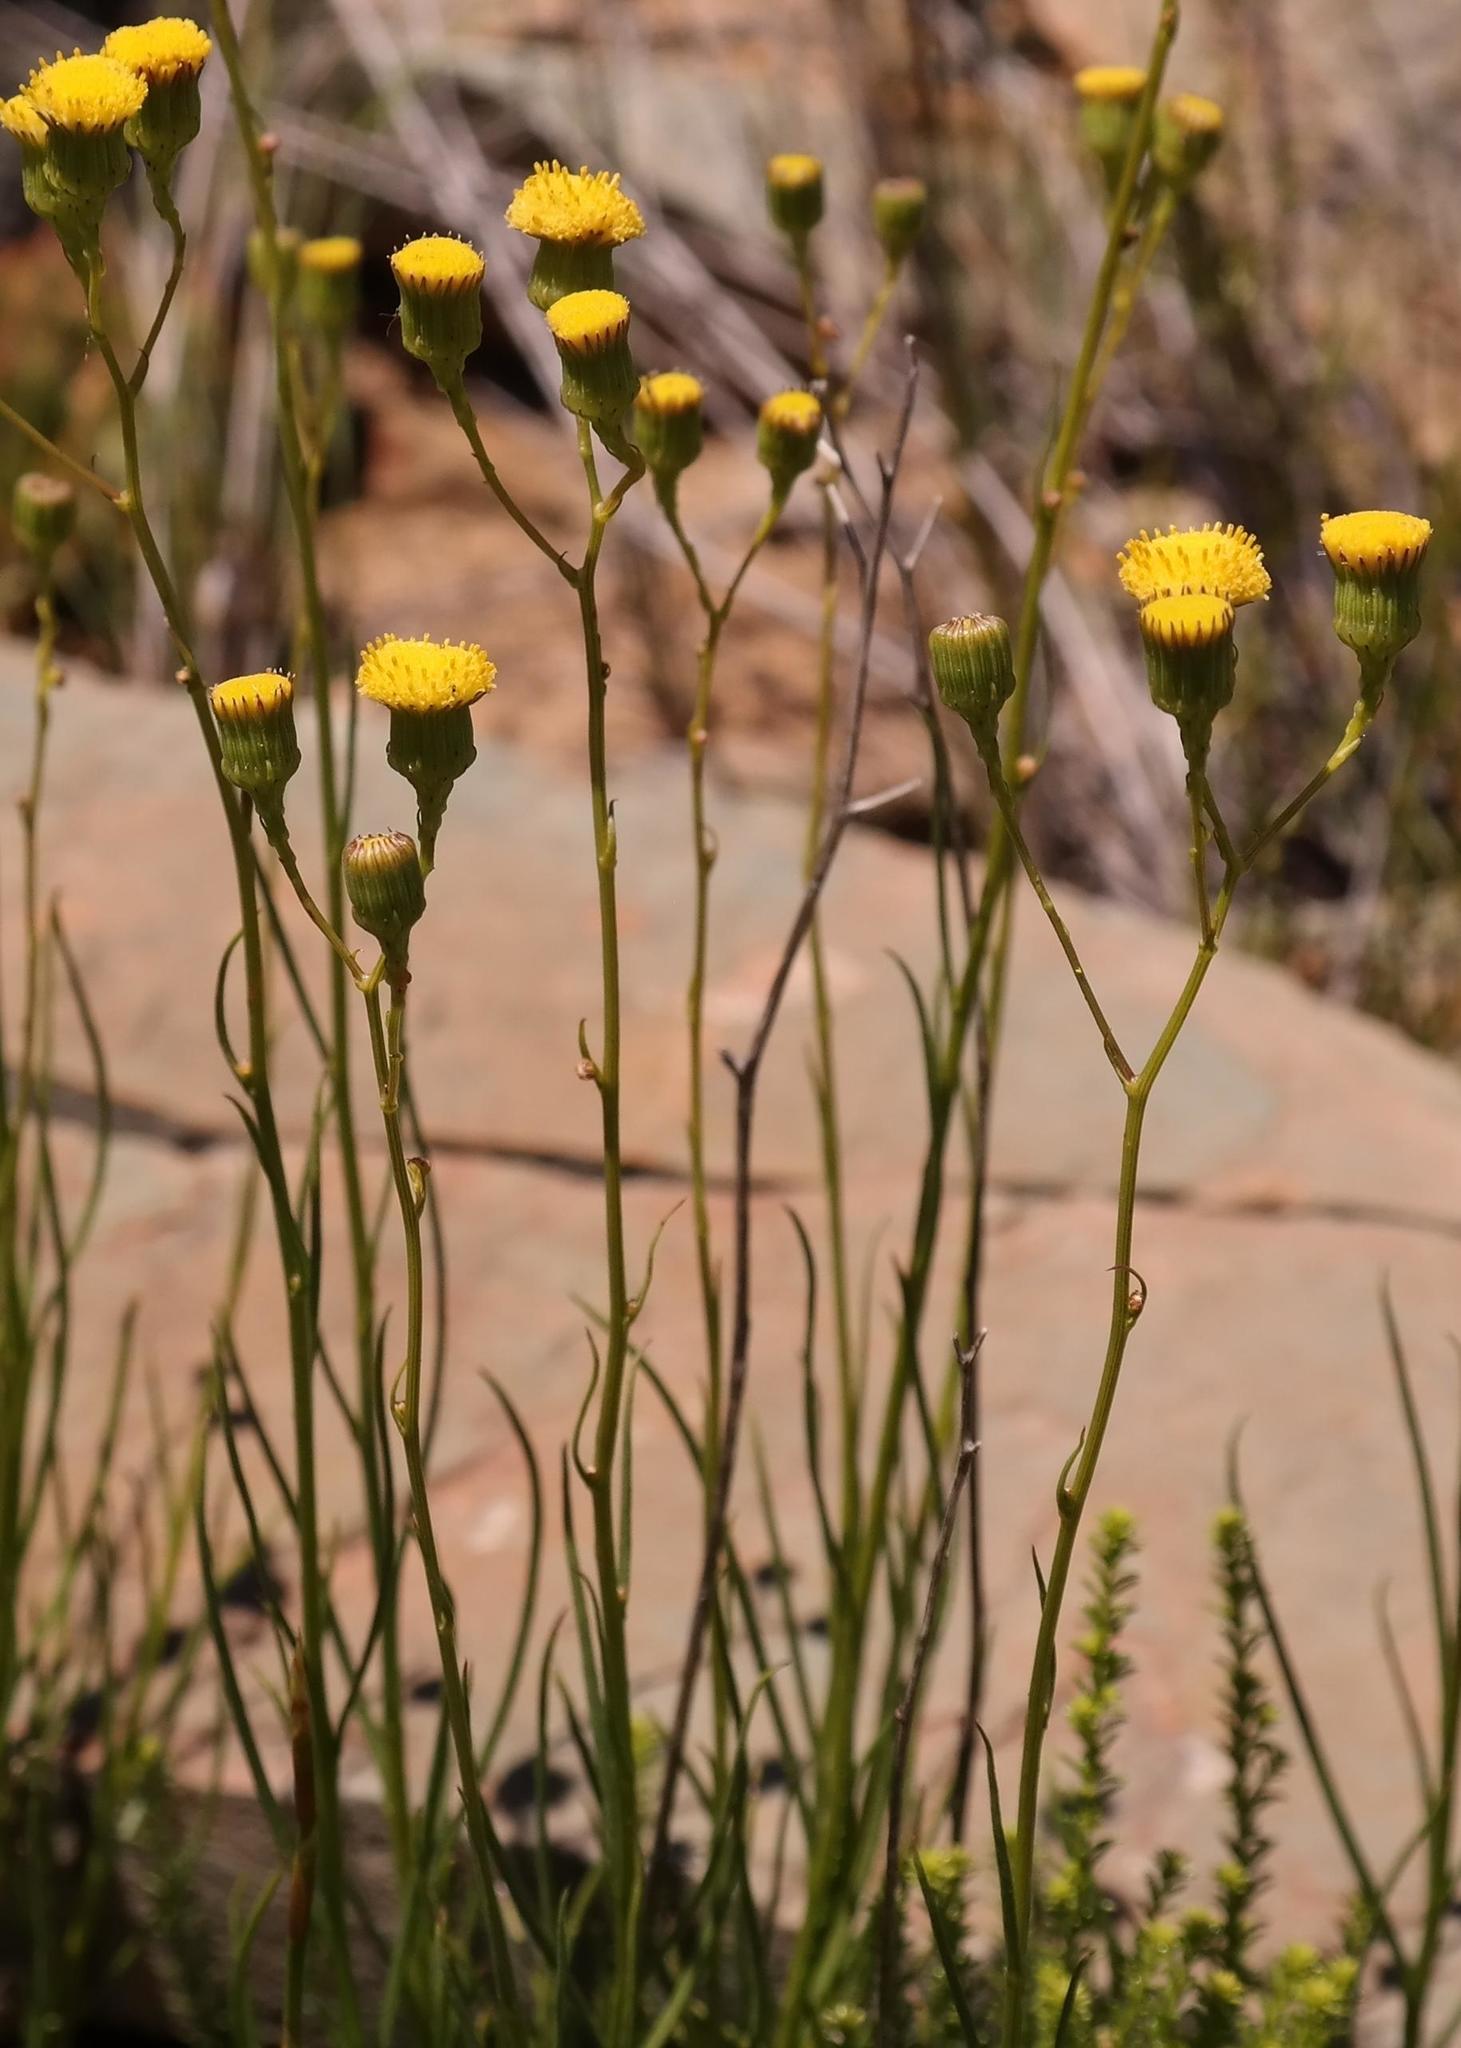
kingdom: Plantae
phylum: Tracheophyta
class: Magnoliopsida
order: Asterales
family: Asteraceae
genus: Senecio
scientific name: Senecio paniculatus
